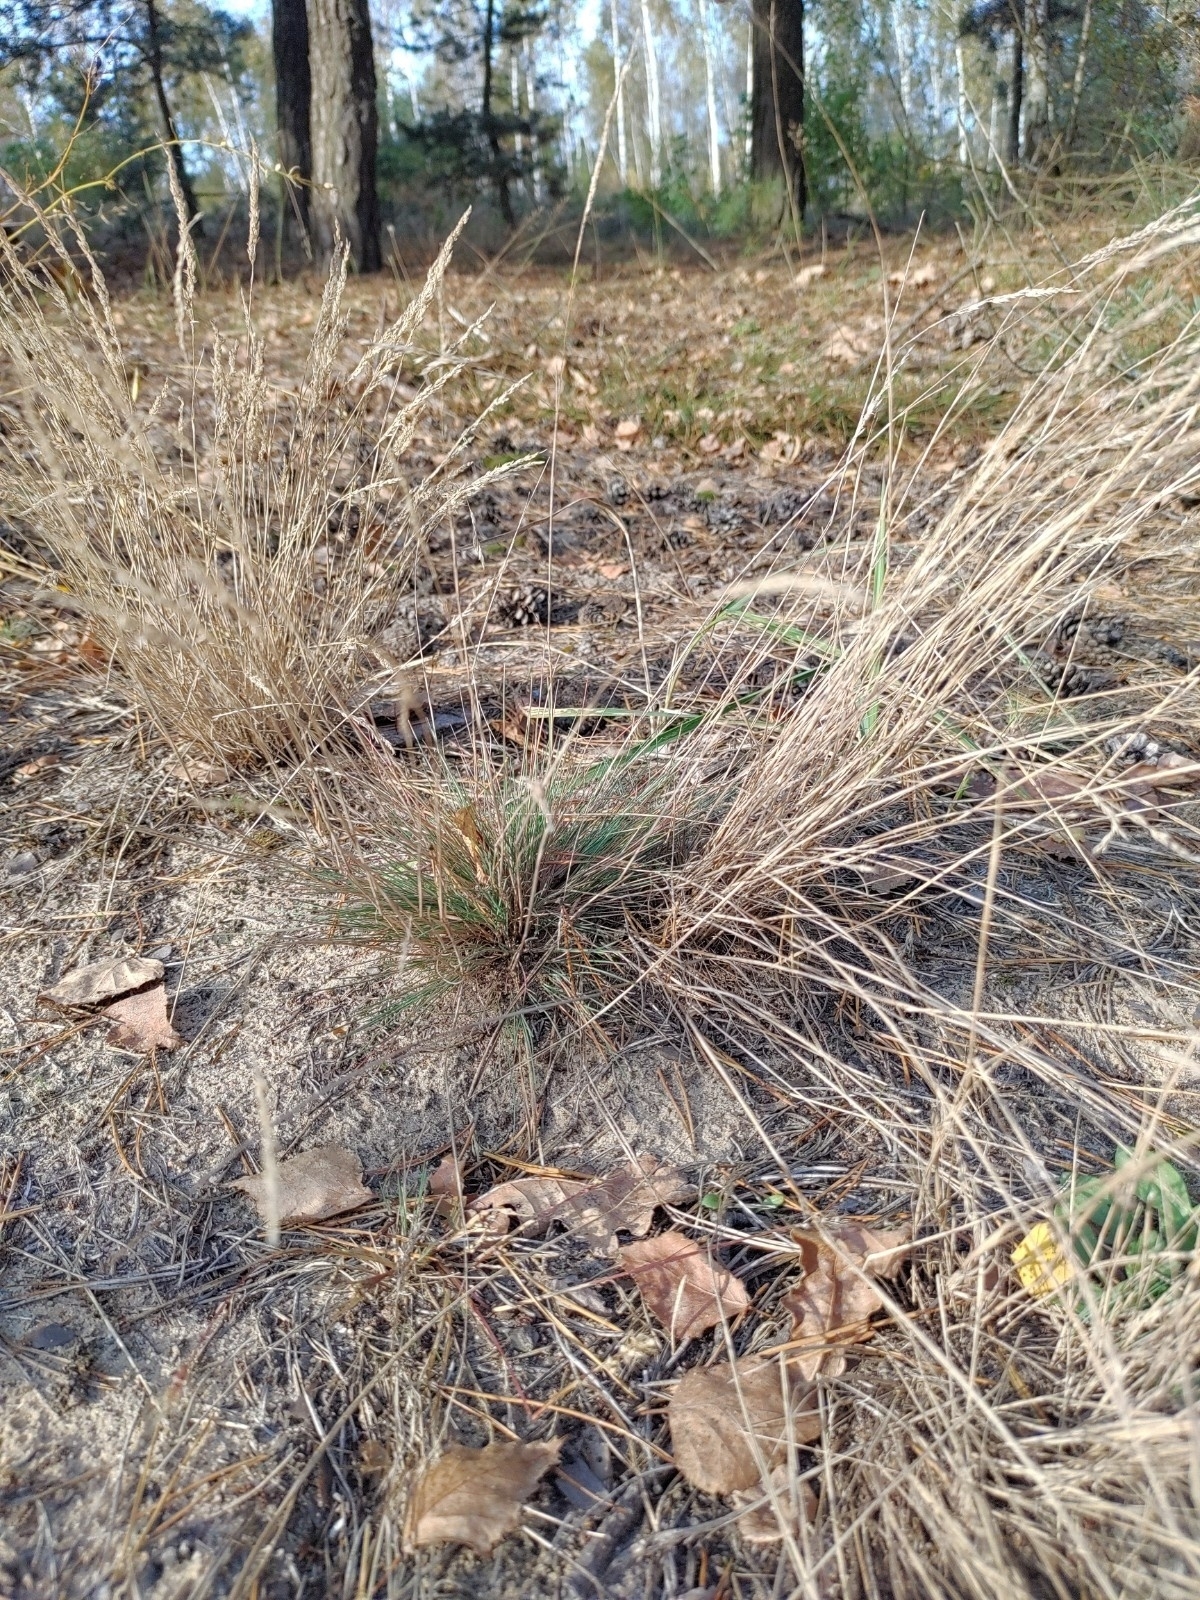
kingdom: Plantae
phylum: Tracheophyta
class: Liliopsida
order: Poales
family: Poaceae
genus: Corynephorus
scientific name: Corynephorus canescens
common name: Grey hair-grass
